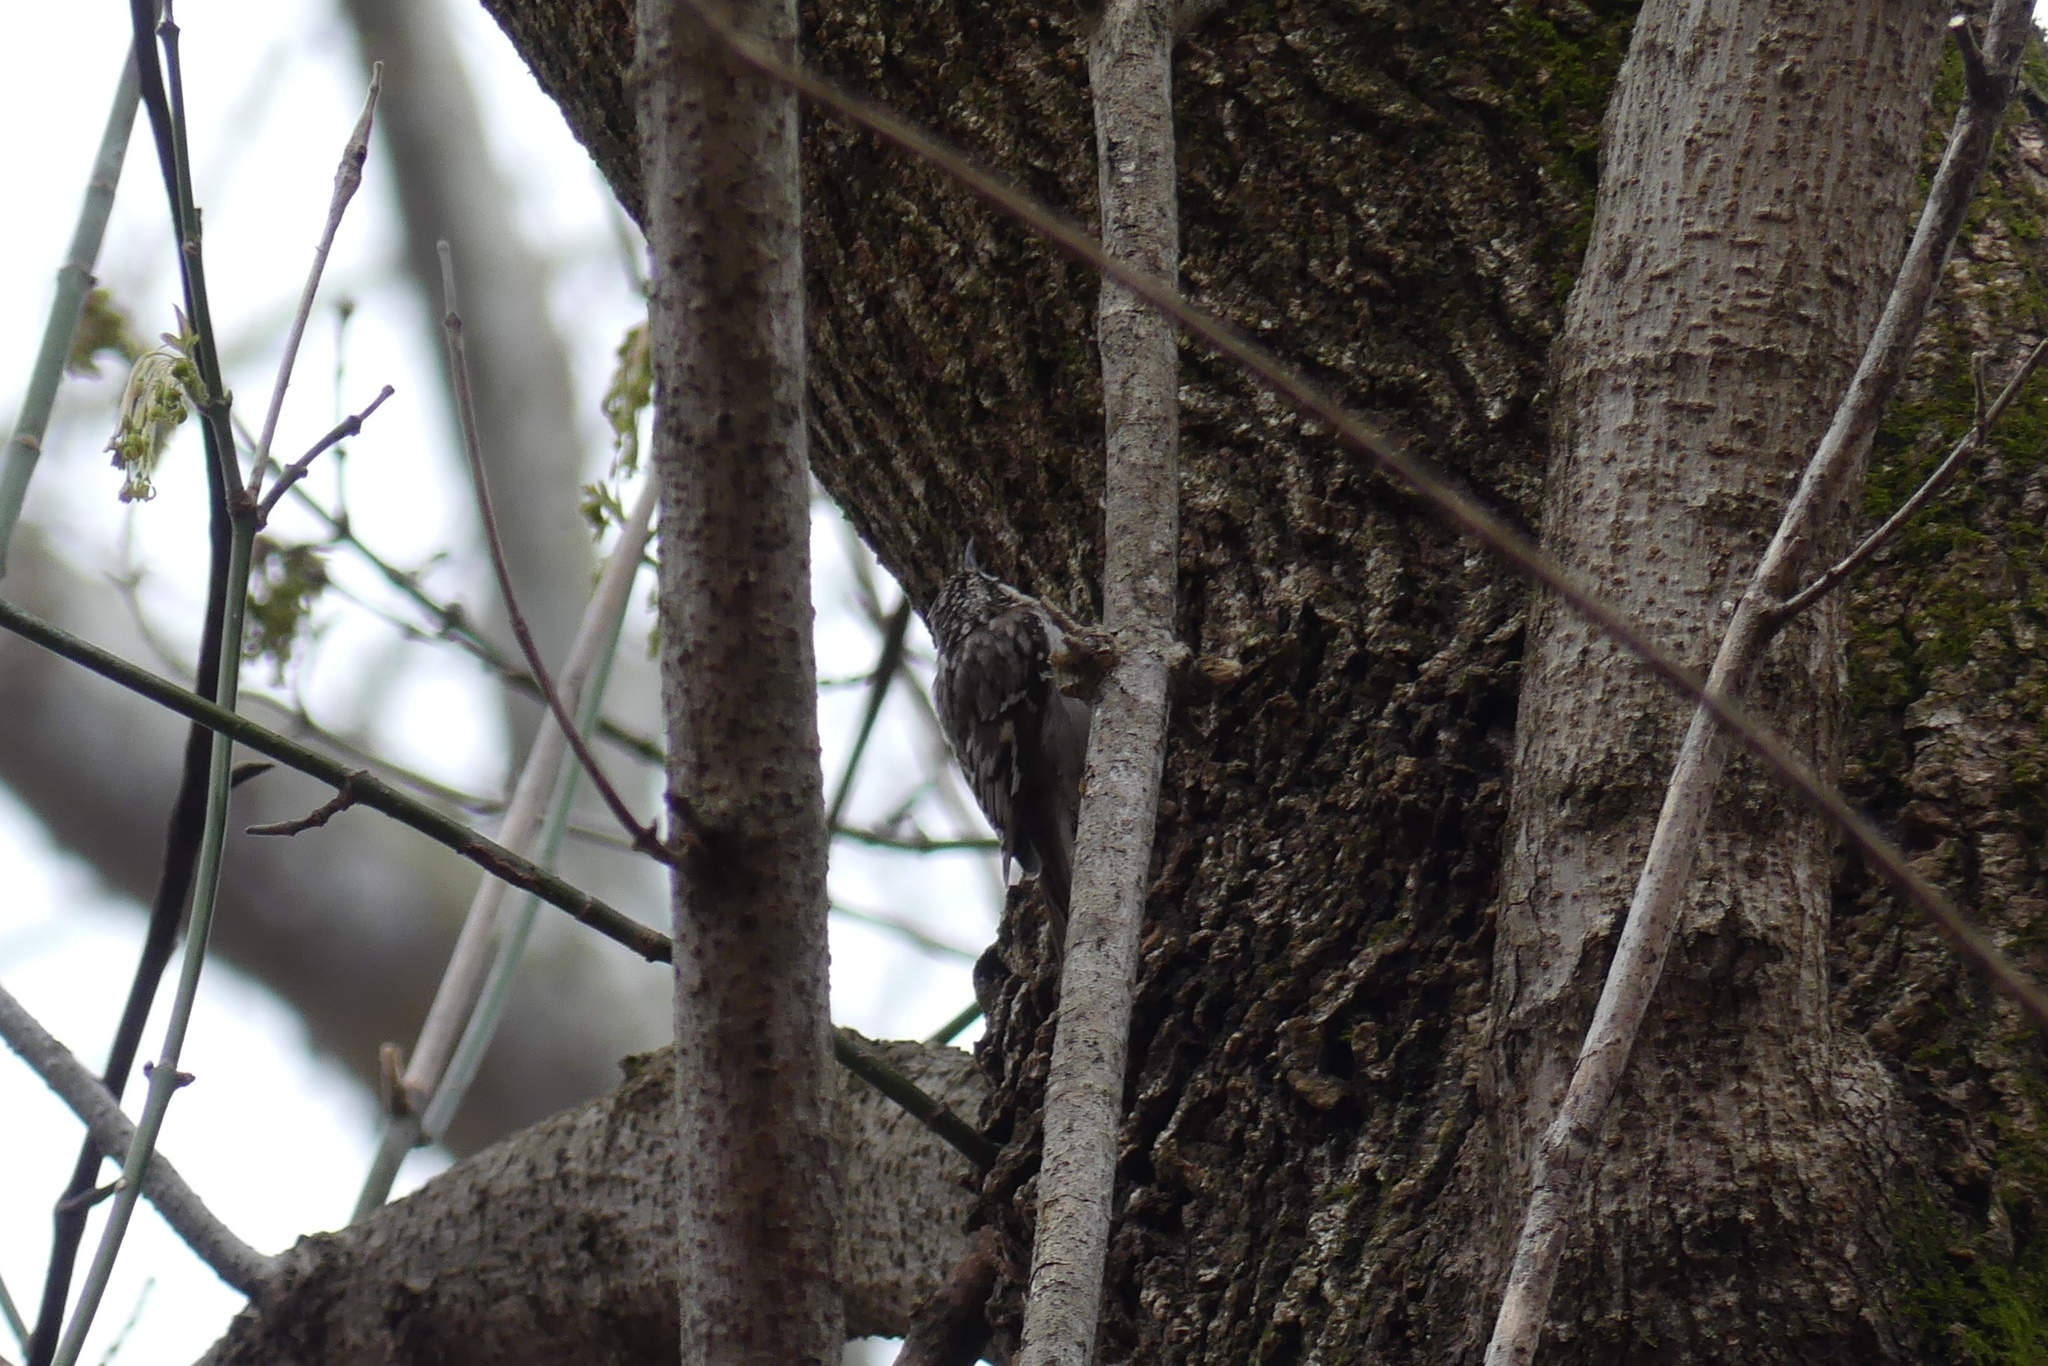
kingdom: Animalia
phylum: Chordata
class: Aves
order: Passeriformes
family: Certhiidae
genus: Certhia
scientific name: Certhia americana
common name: Brown creeper
